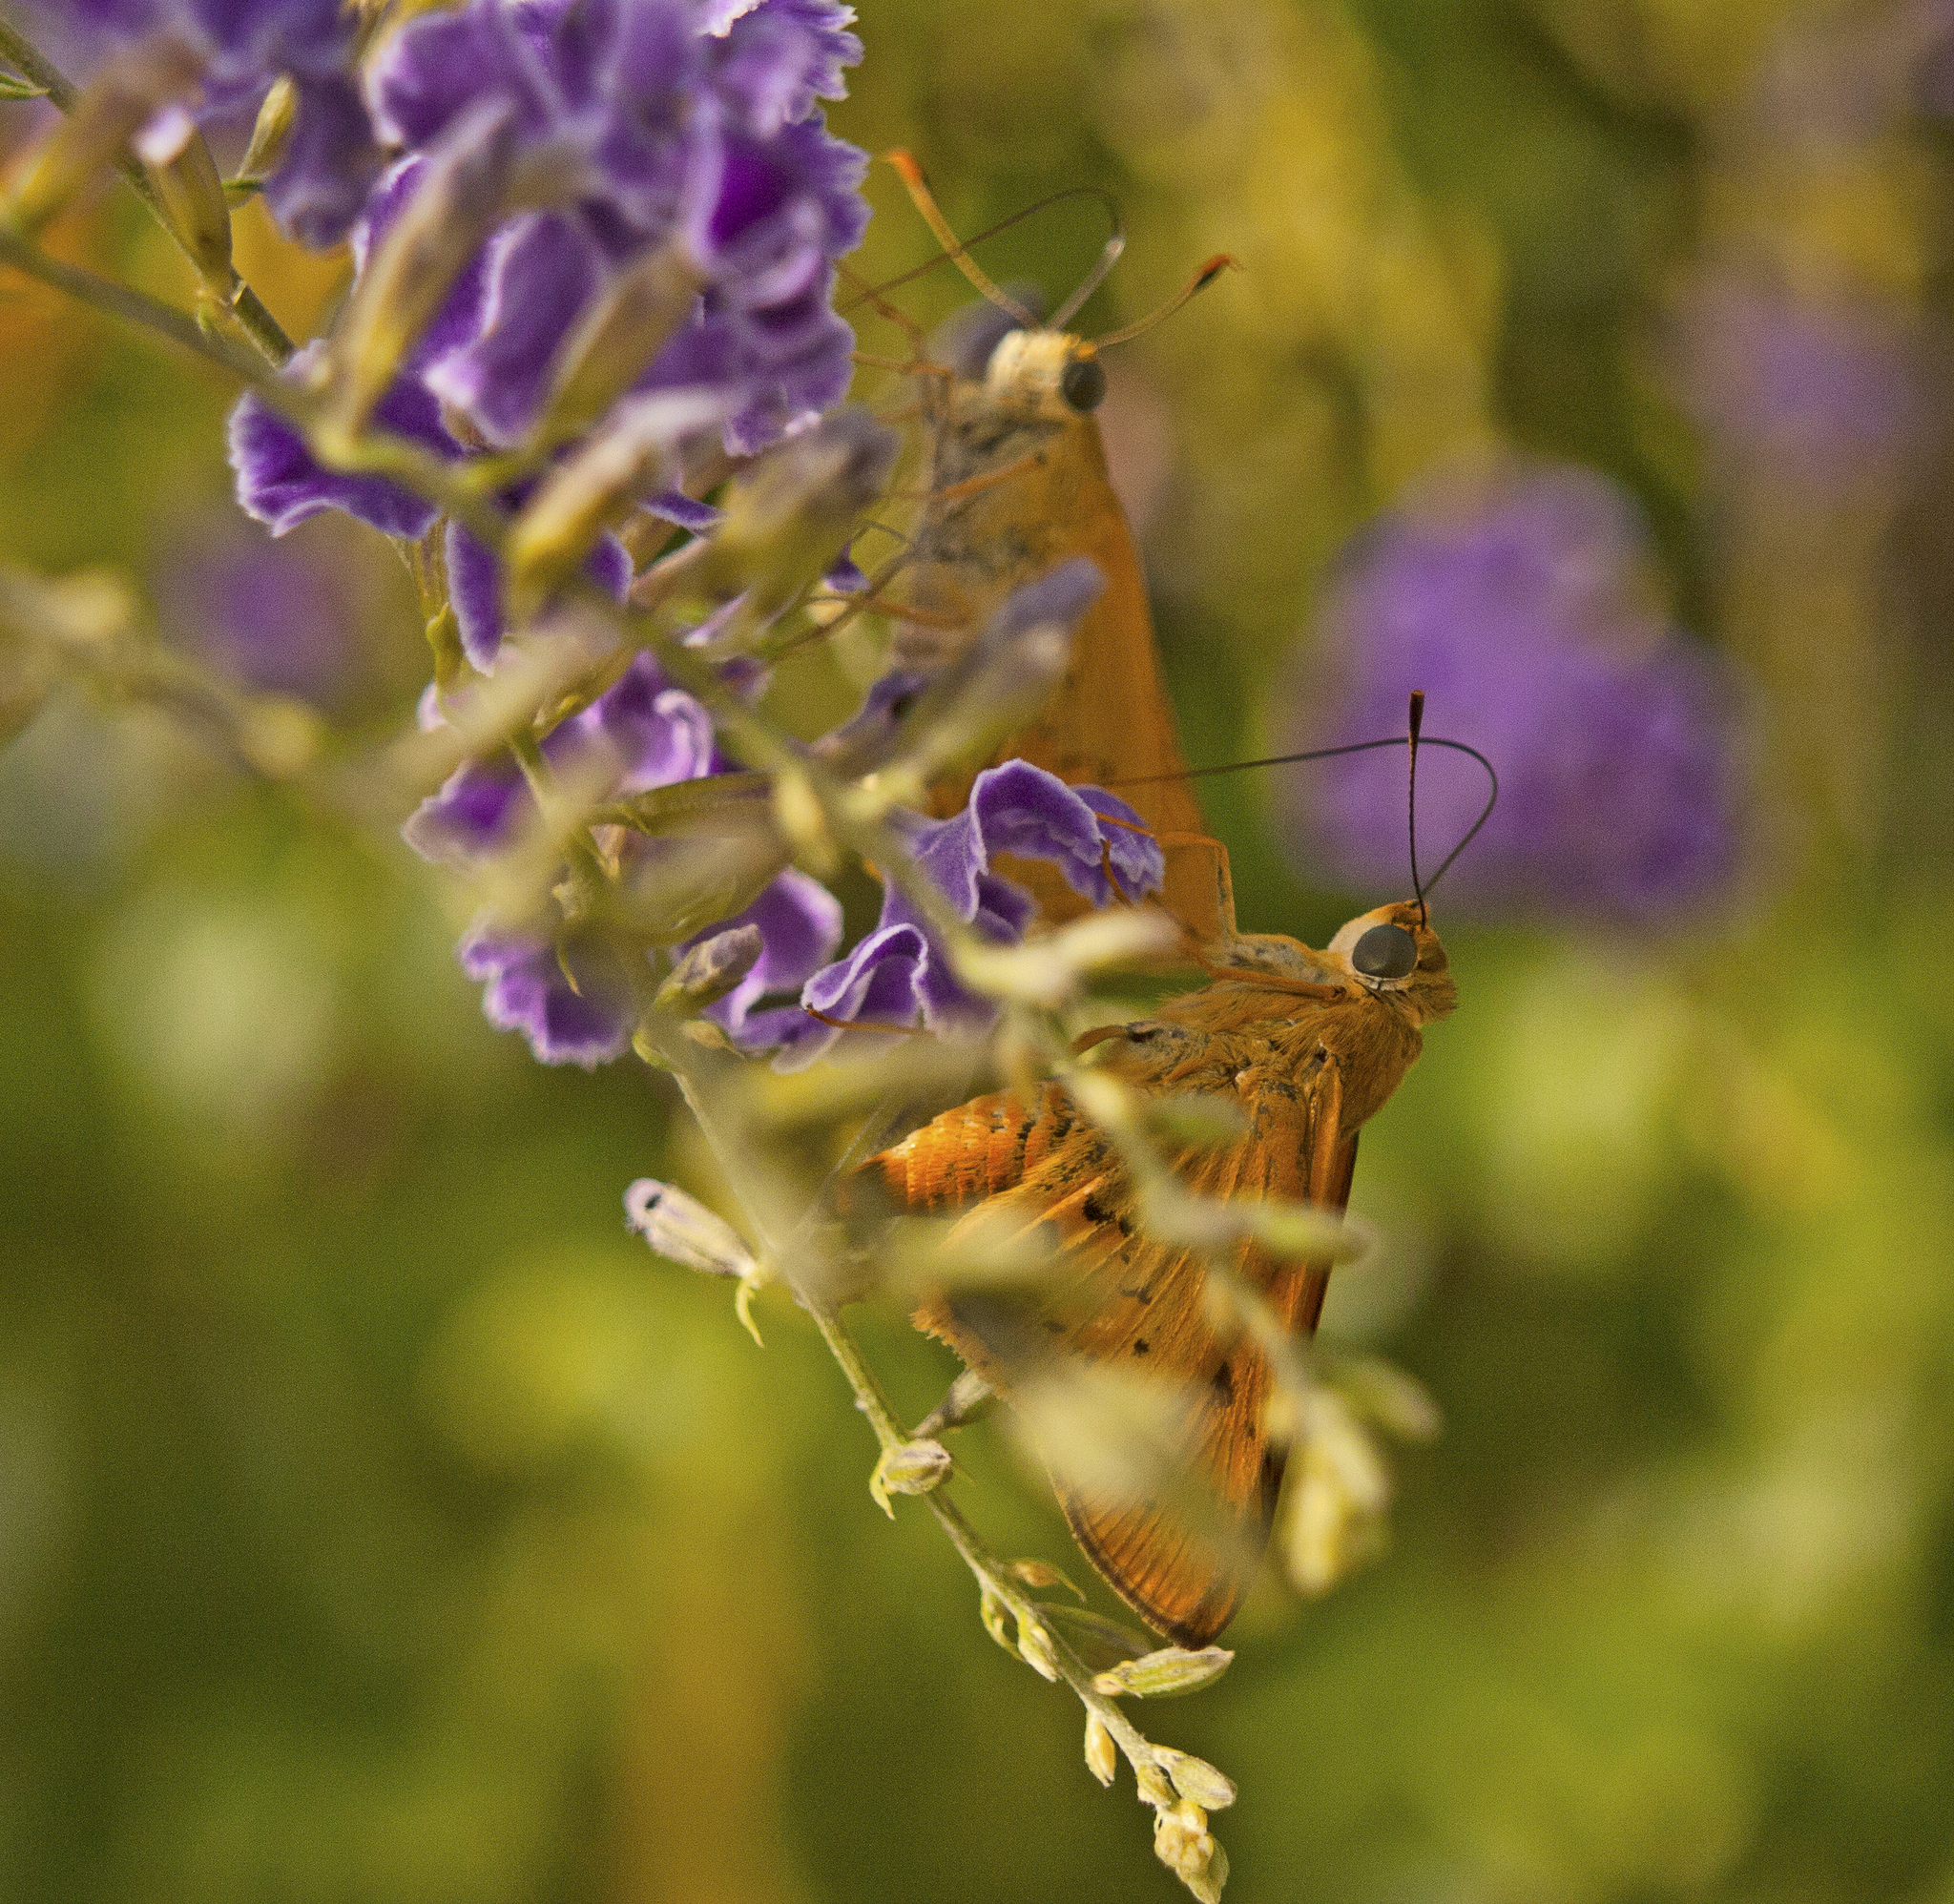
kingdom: Animalia
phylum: Arthropoda
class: Insecta
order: Lepidoptera
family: Hesperiidae
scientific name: Hesperiidae
